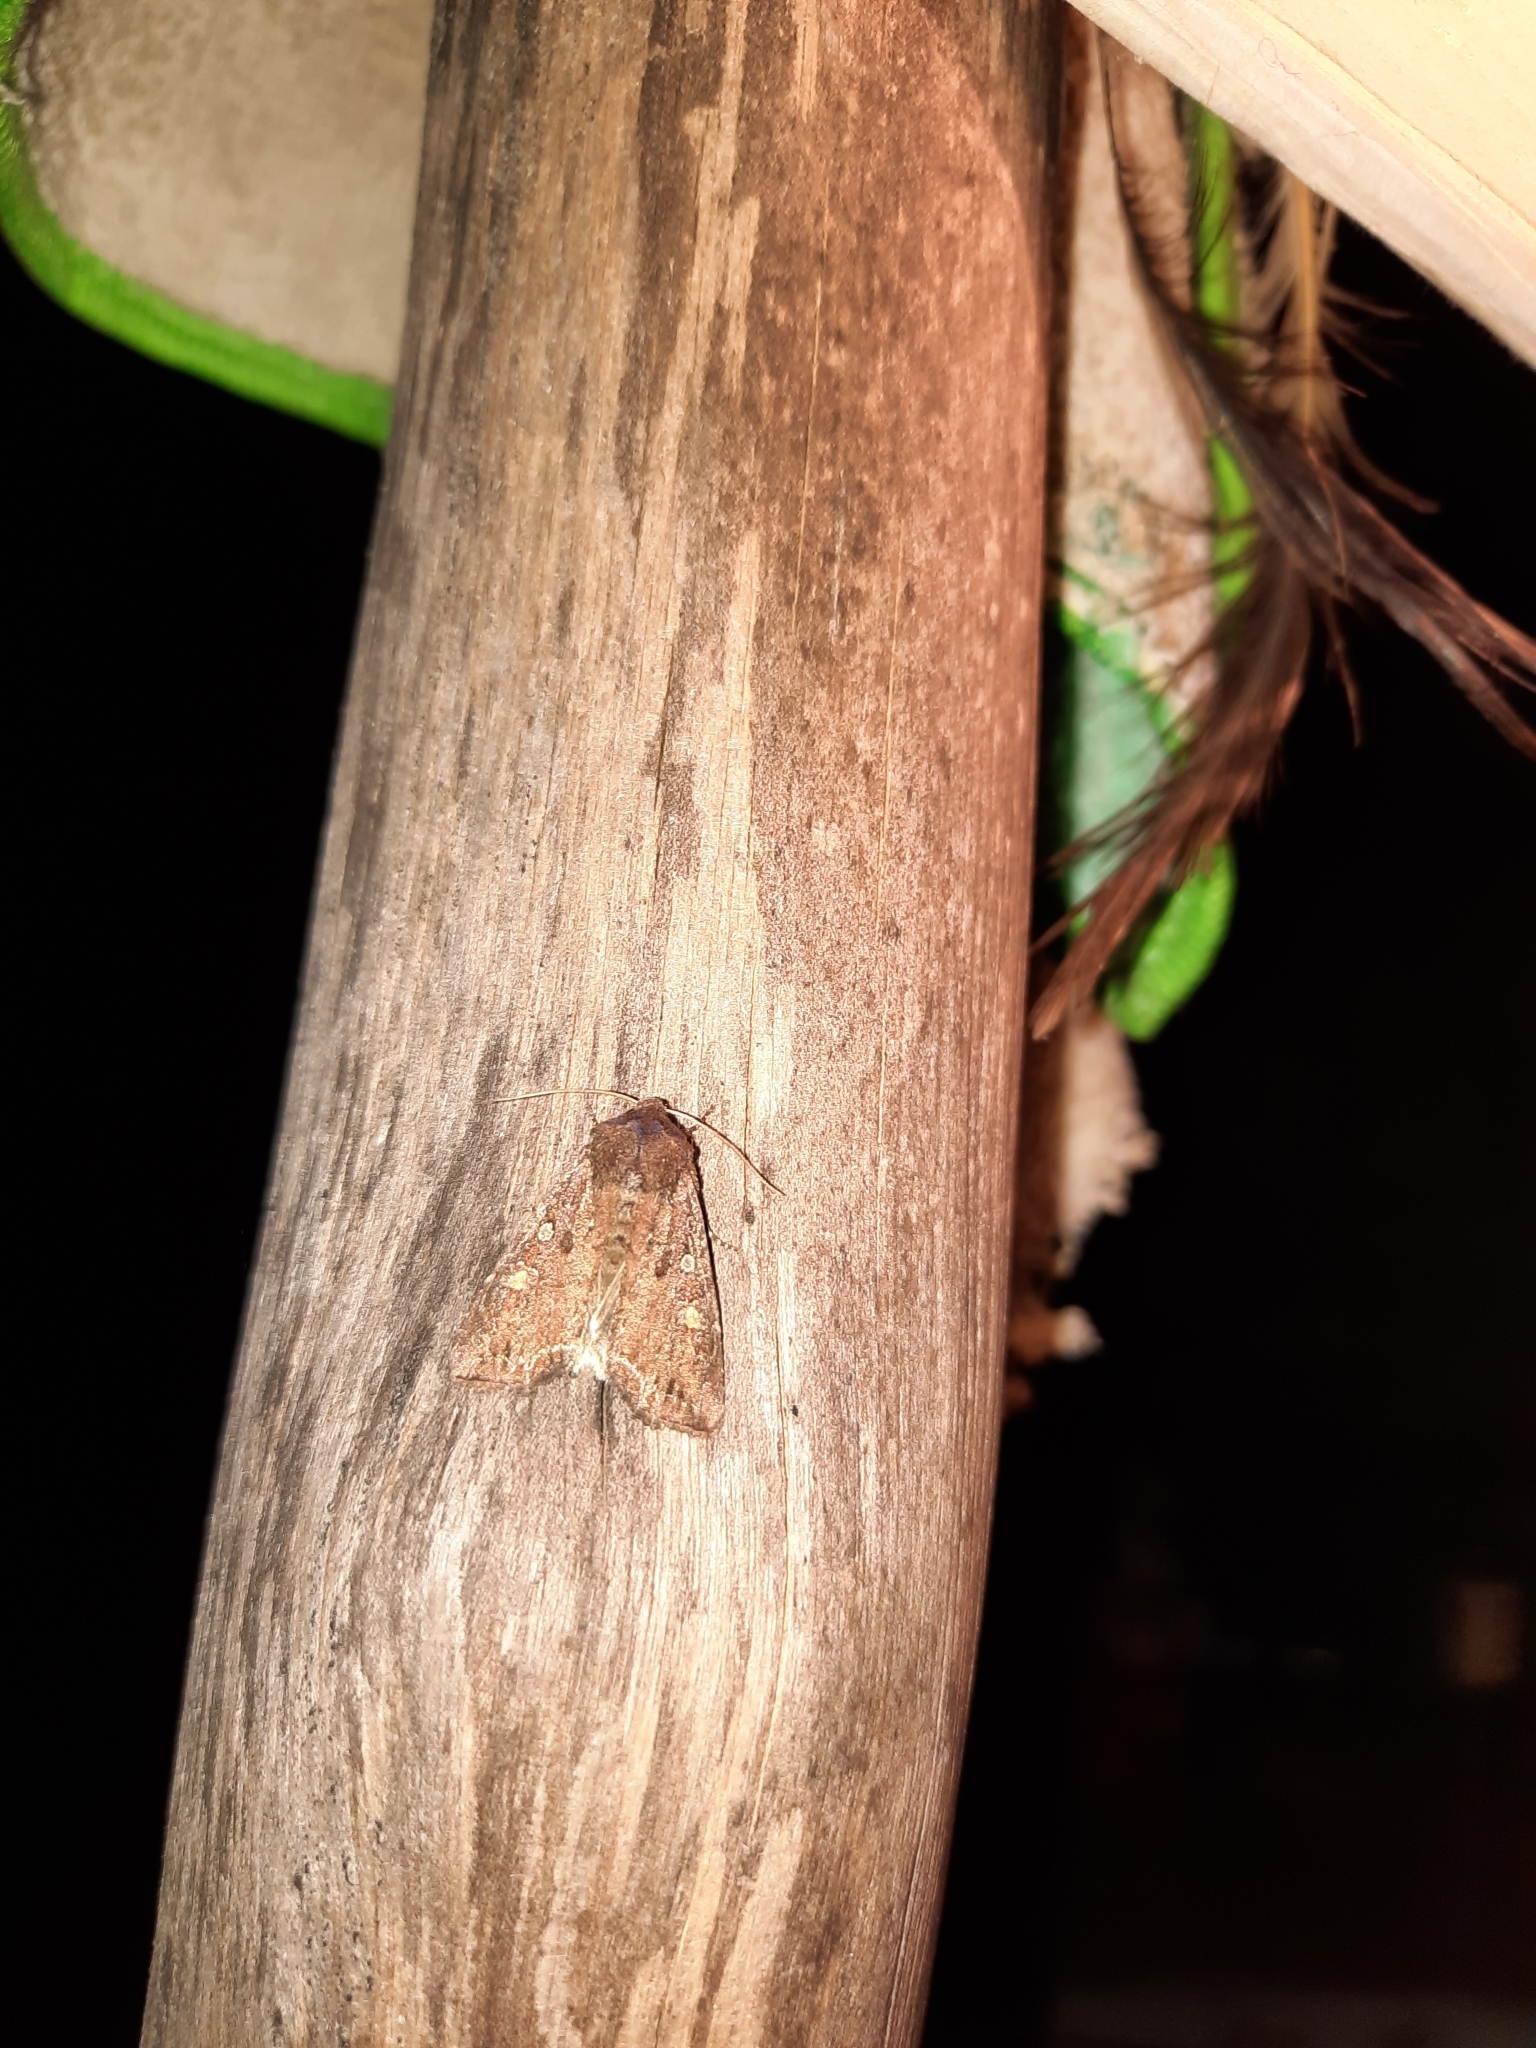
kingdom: Animalia
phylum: Arthropoda
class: Insecta
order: Lepidoptera
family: Noctuidae
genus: Lacanobia
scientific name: Lacanobia oleracea
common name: Bright-line brown-eye
